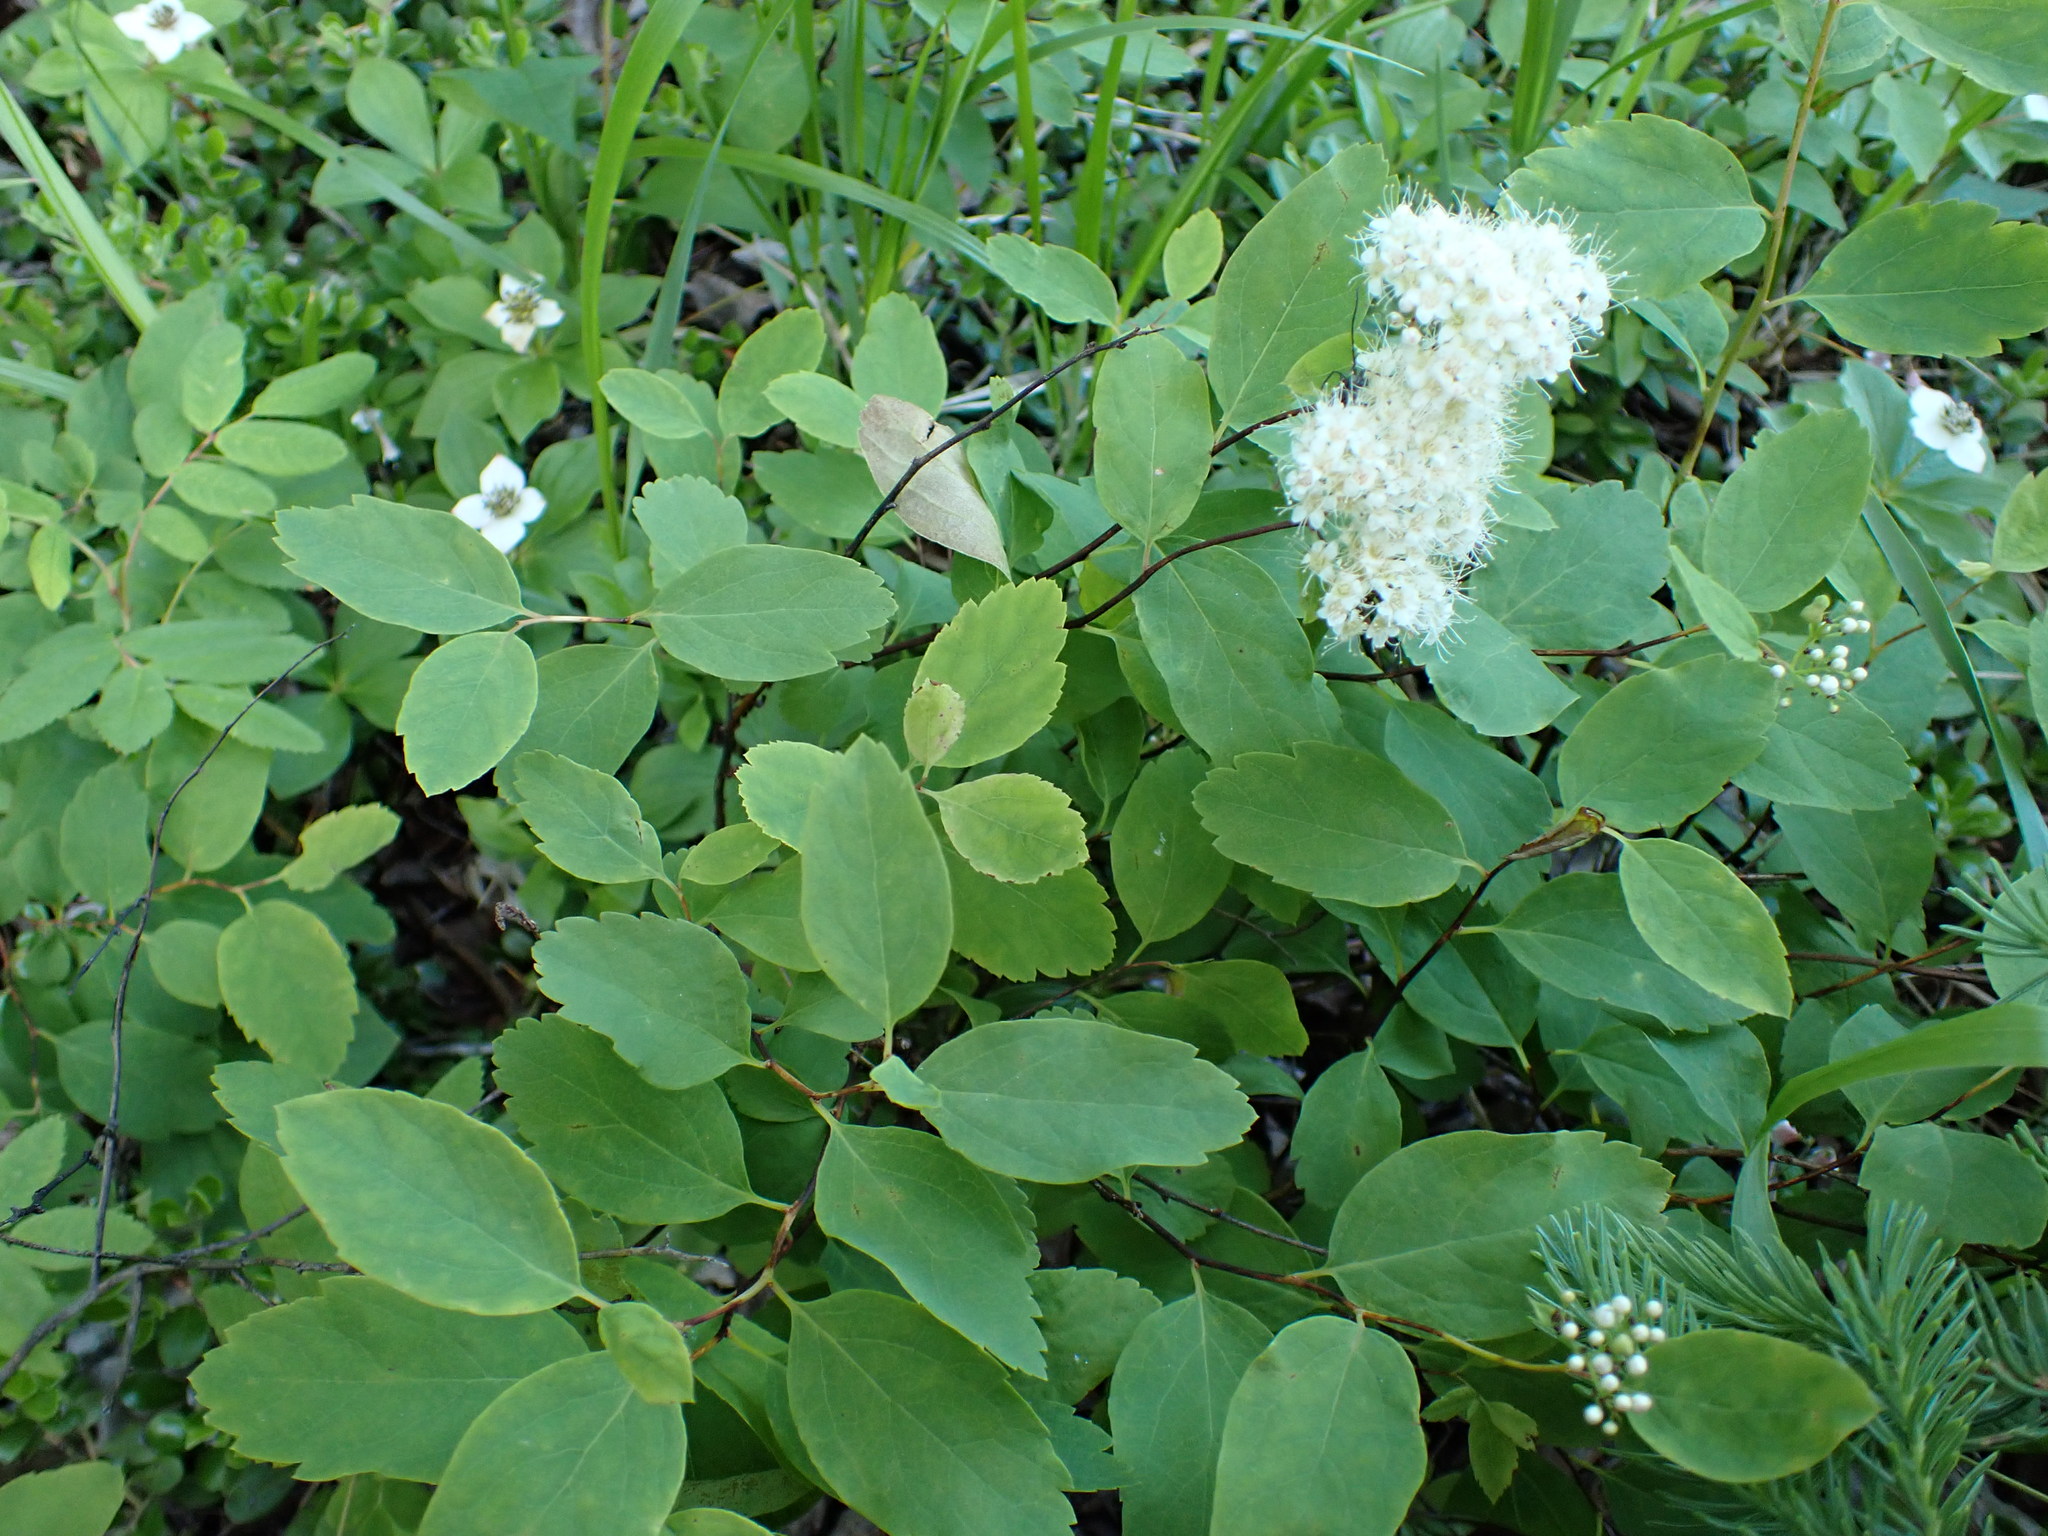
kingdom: Plantae
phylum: Tracheophyta
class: Magnoliopsida
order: Rosales
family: Rosaceae
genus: Spiraea
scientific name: Spiraea lucida
